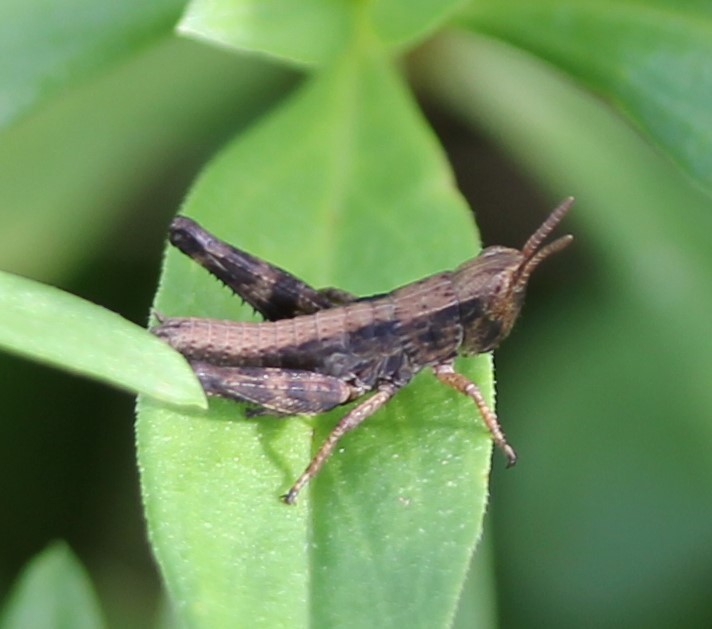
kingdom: Animalia
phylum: Arthropoda
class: Insecta
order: Orthoptera
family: Acrididae
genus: Dichromorpha
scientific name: Dichromorpha viridis
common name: Short-winged green grasshopper
